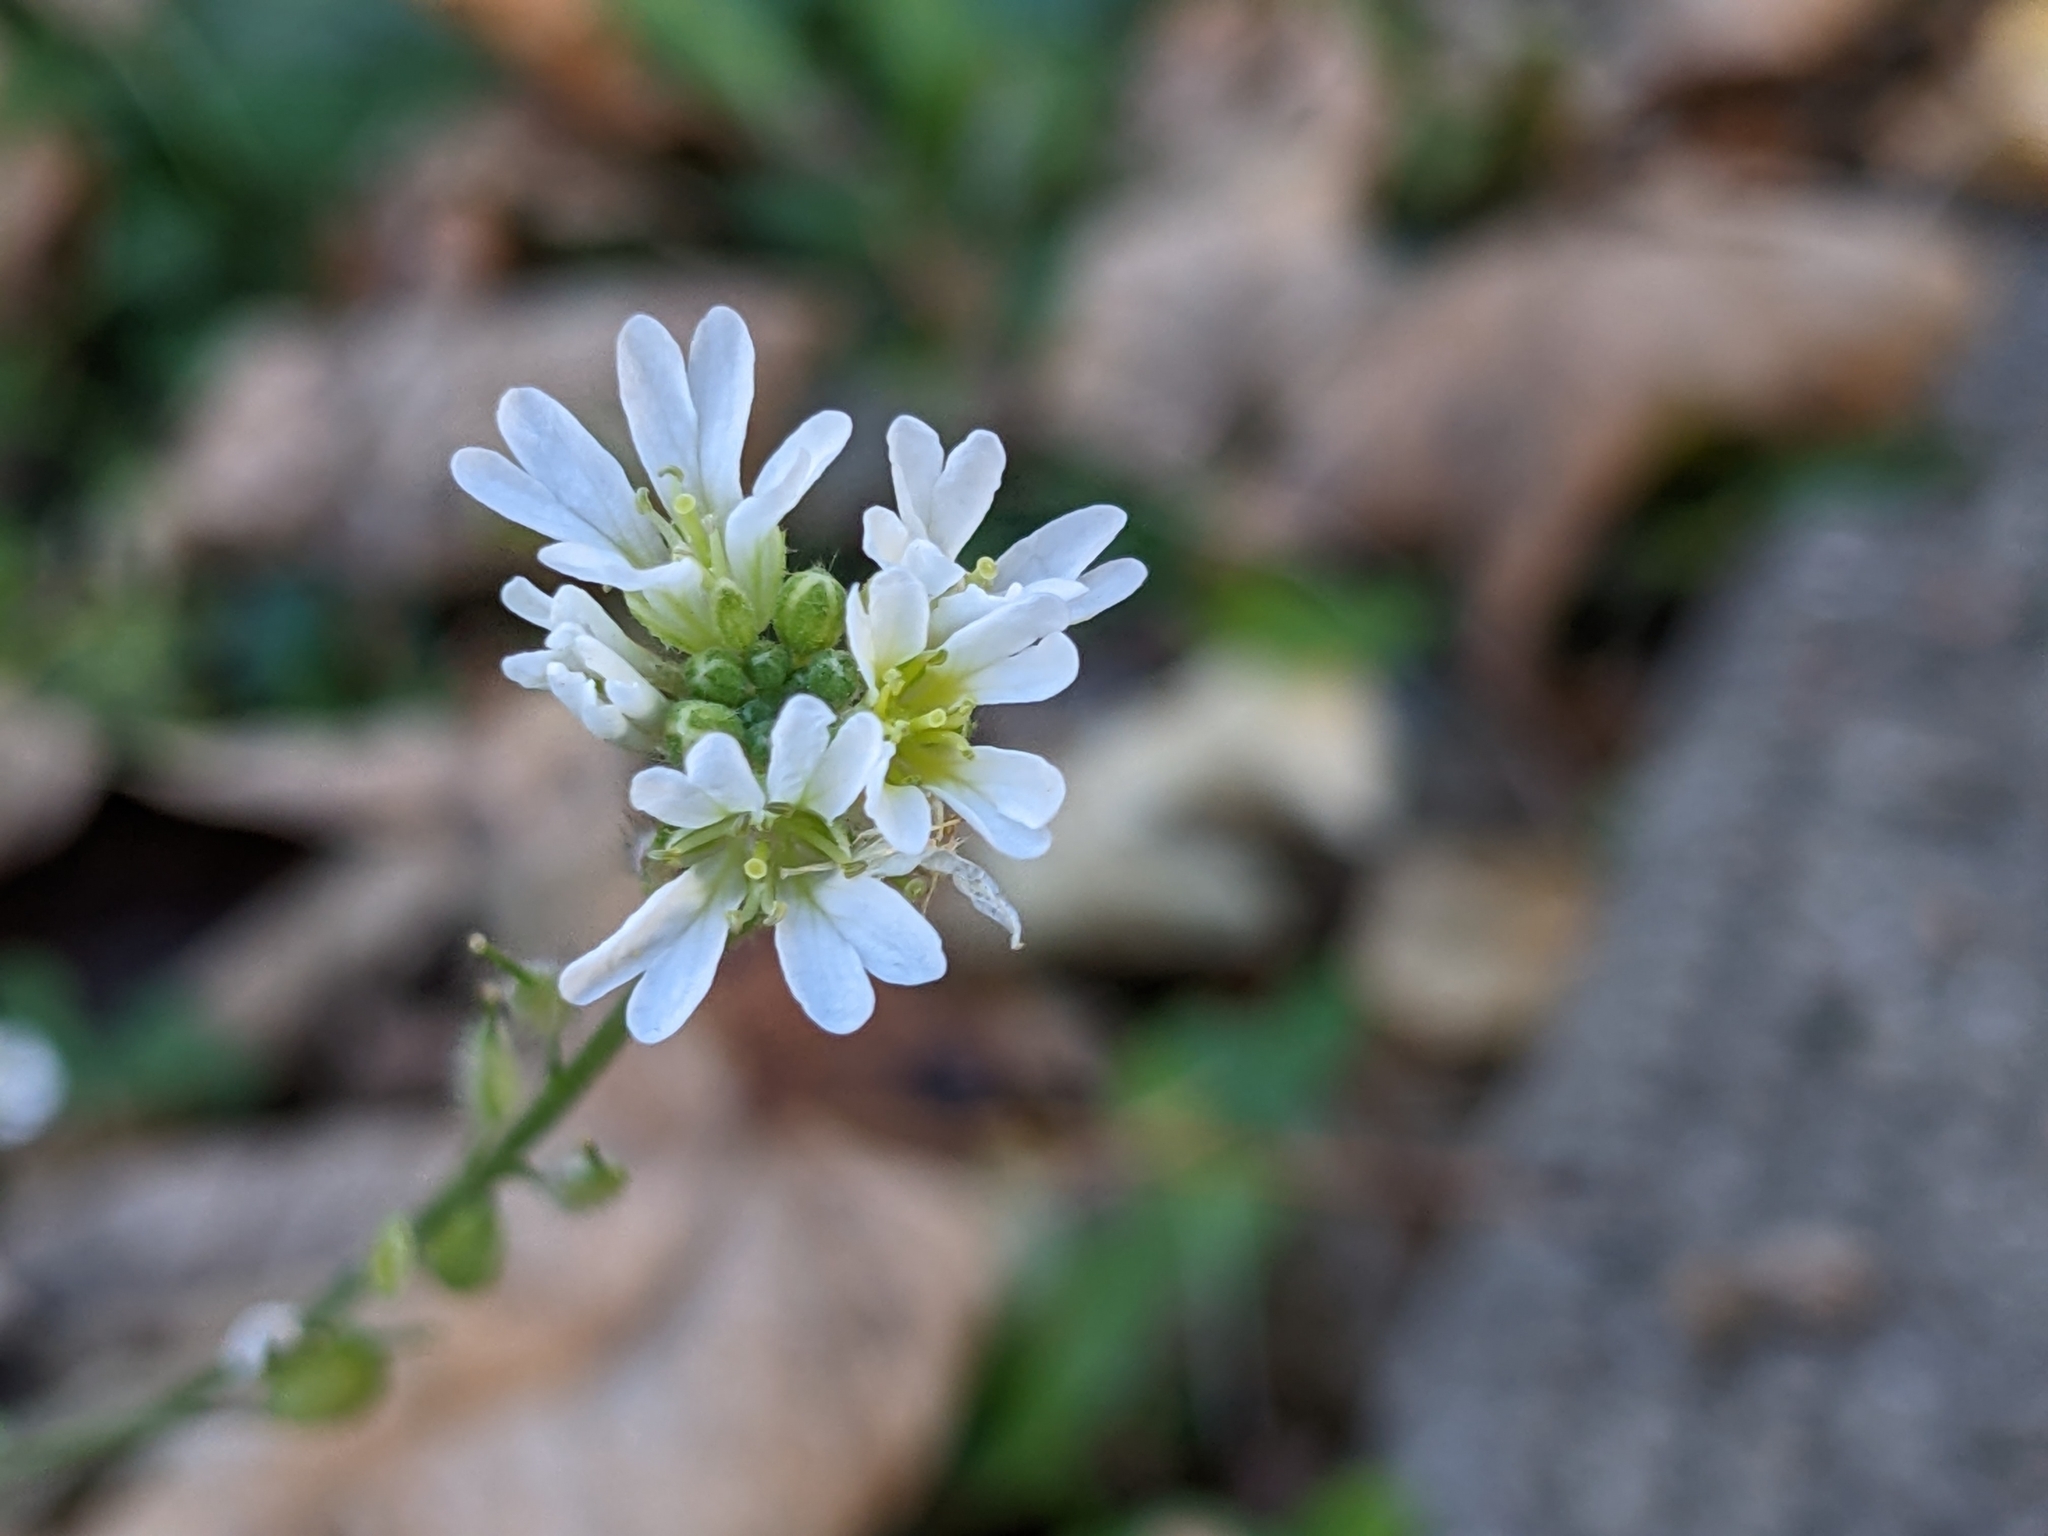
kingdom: Plantae
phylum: Tracheophyta
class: Magnoliopsida
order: Brassicales
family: Brassicaceae
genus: Berteroa
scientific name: Berteroa incana
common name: Hoary alison
